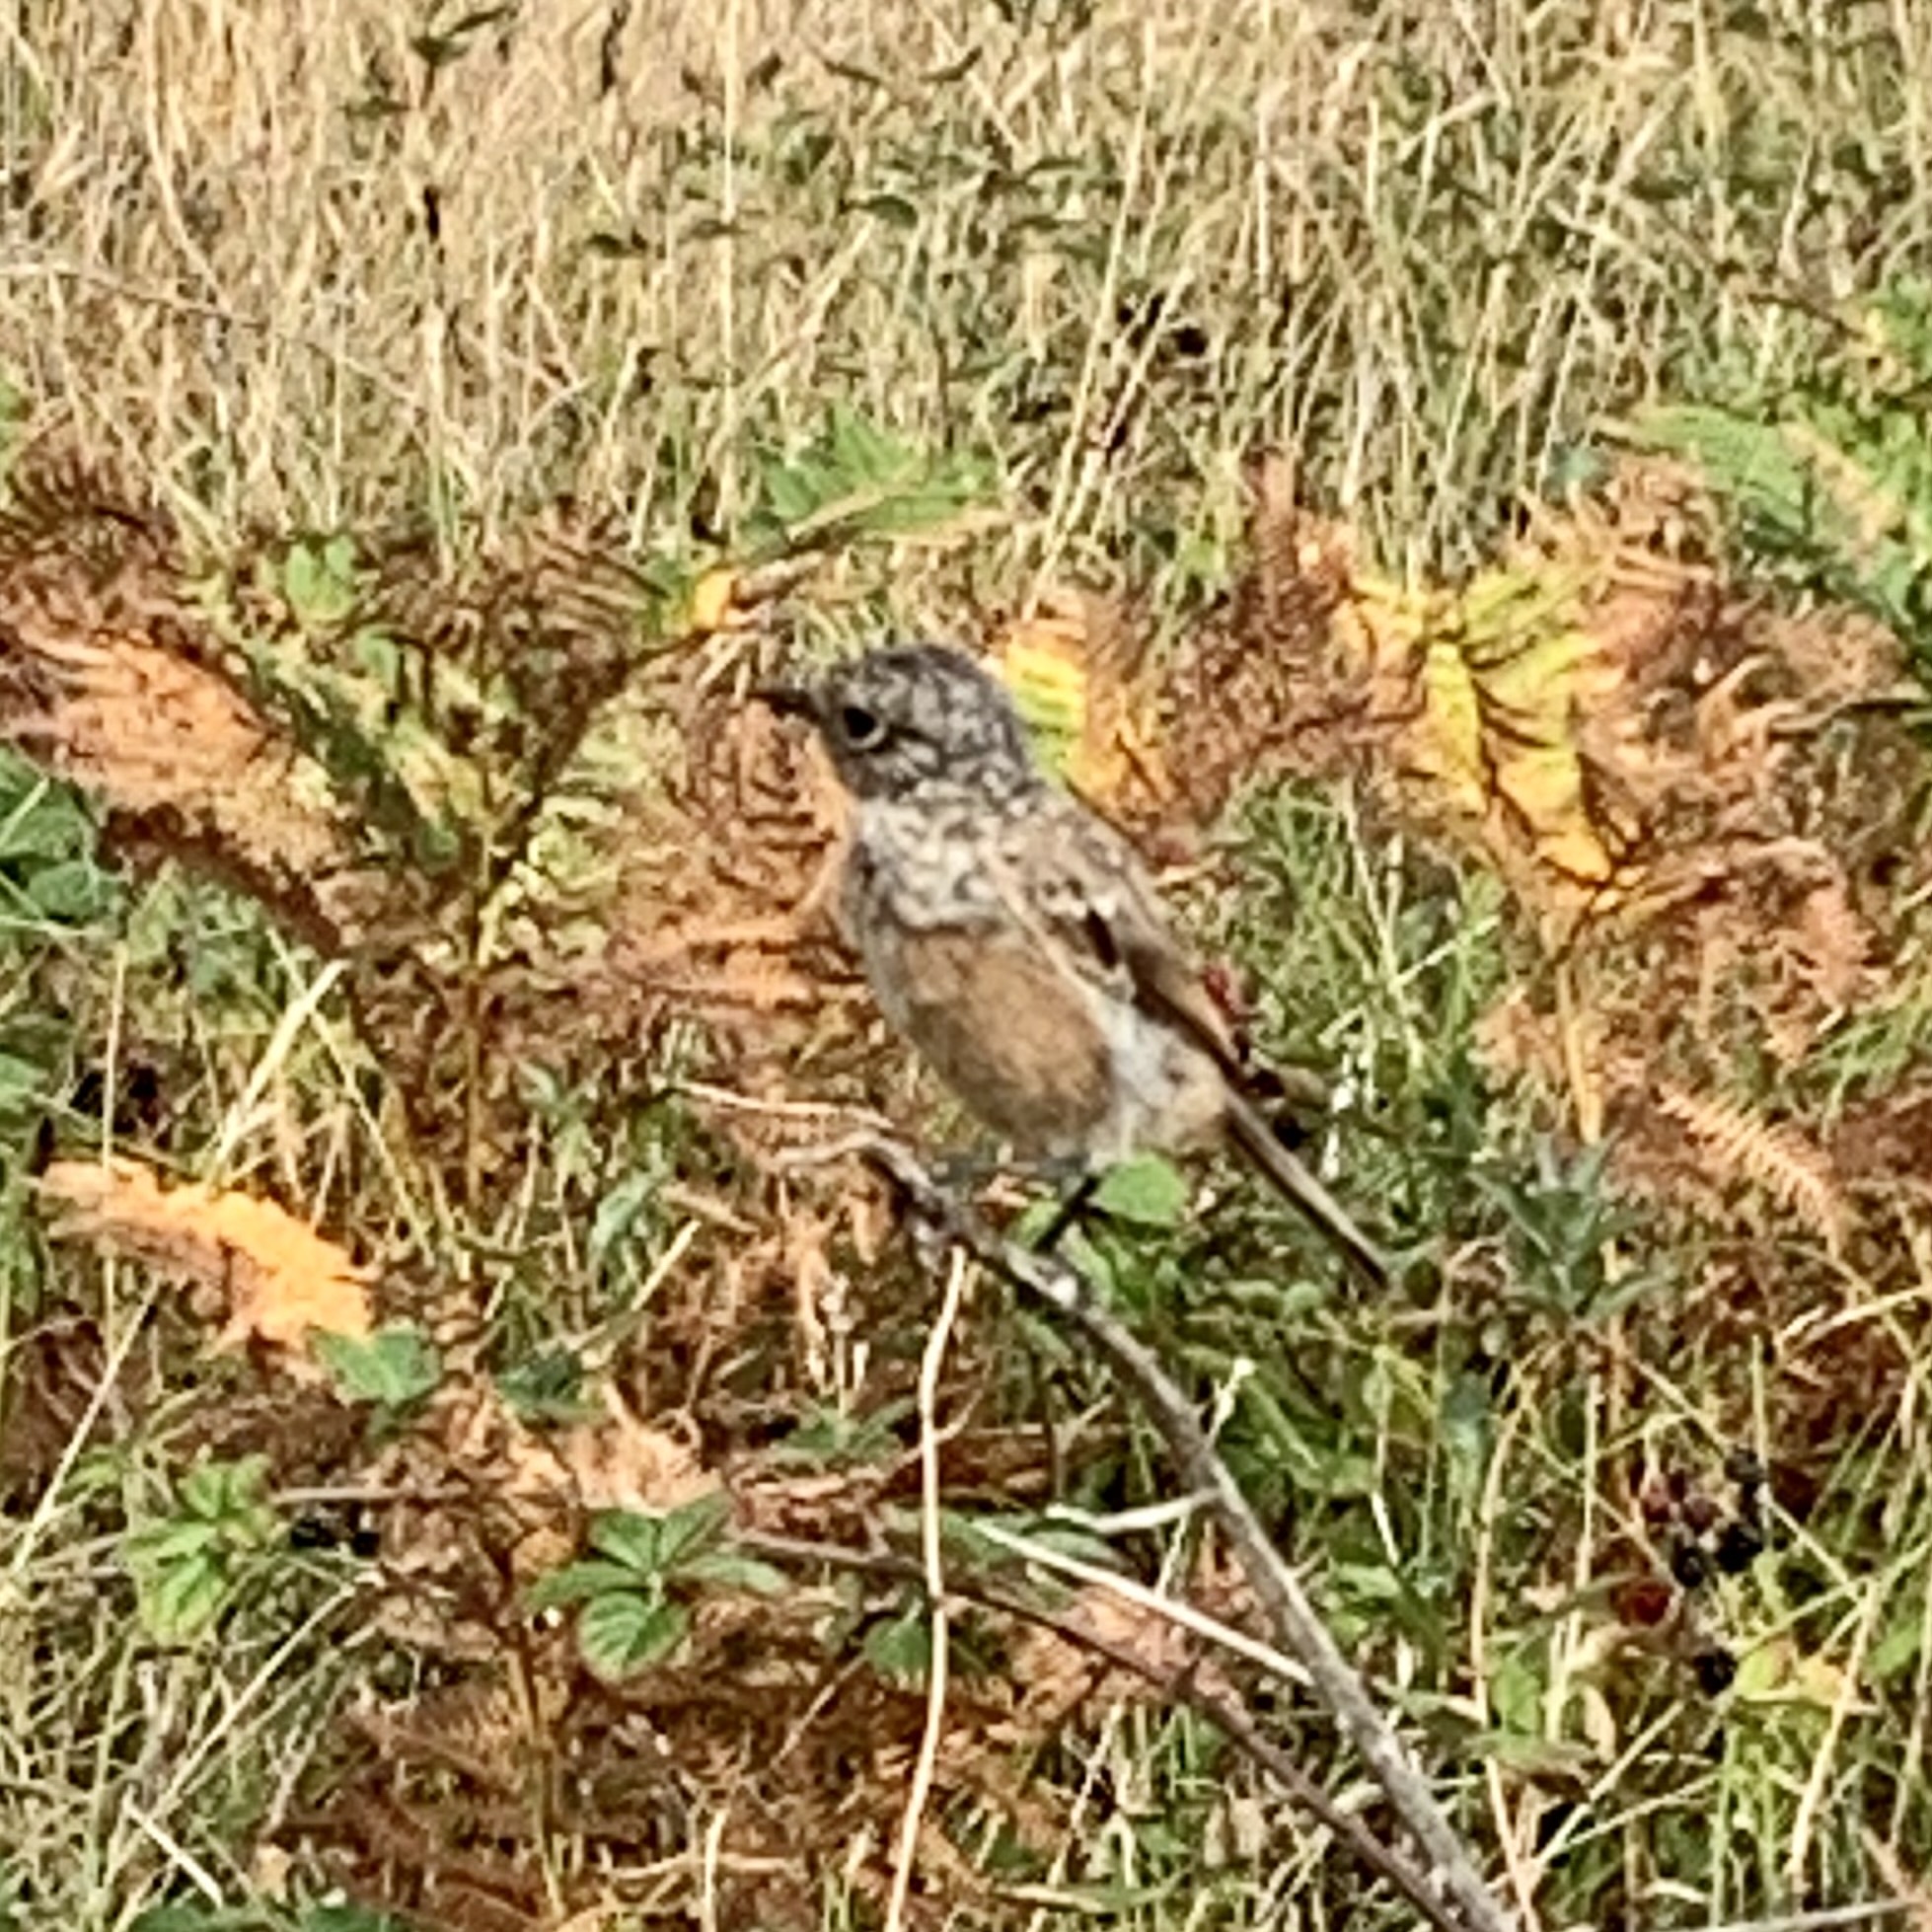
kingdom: Animalia
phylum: Chordata
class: Aves
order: Passeriformes
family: Muscicapidae
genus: Saxicola
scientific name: Saxicola rubicola
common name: European stonechat
